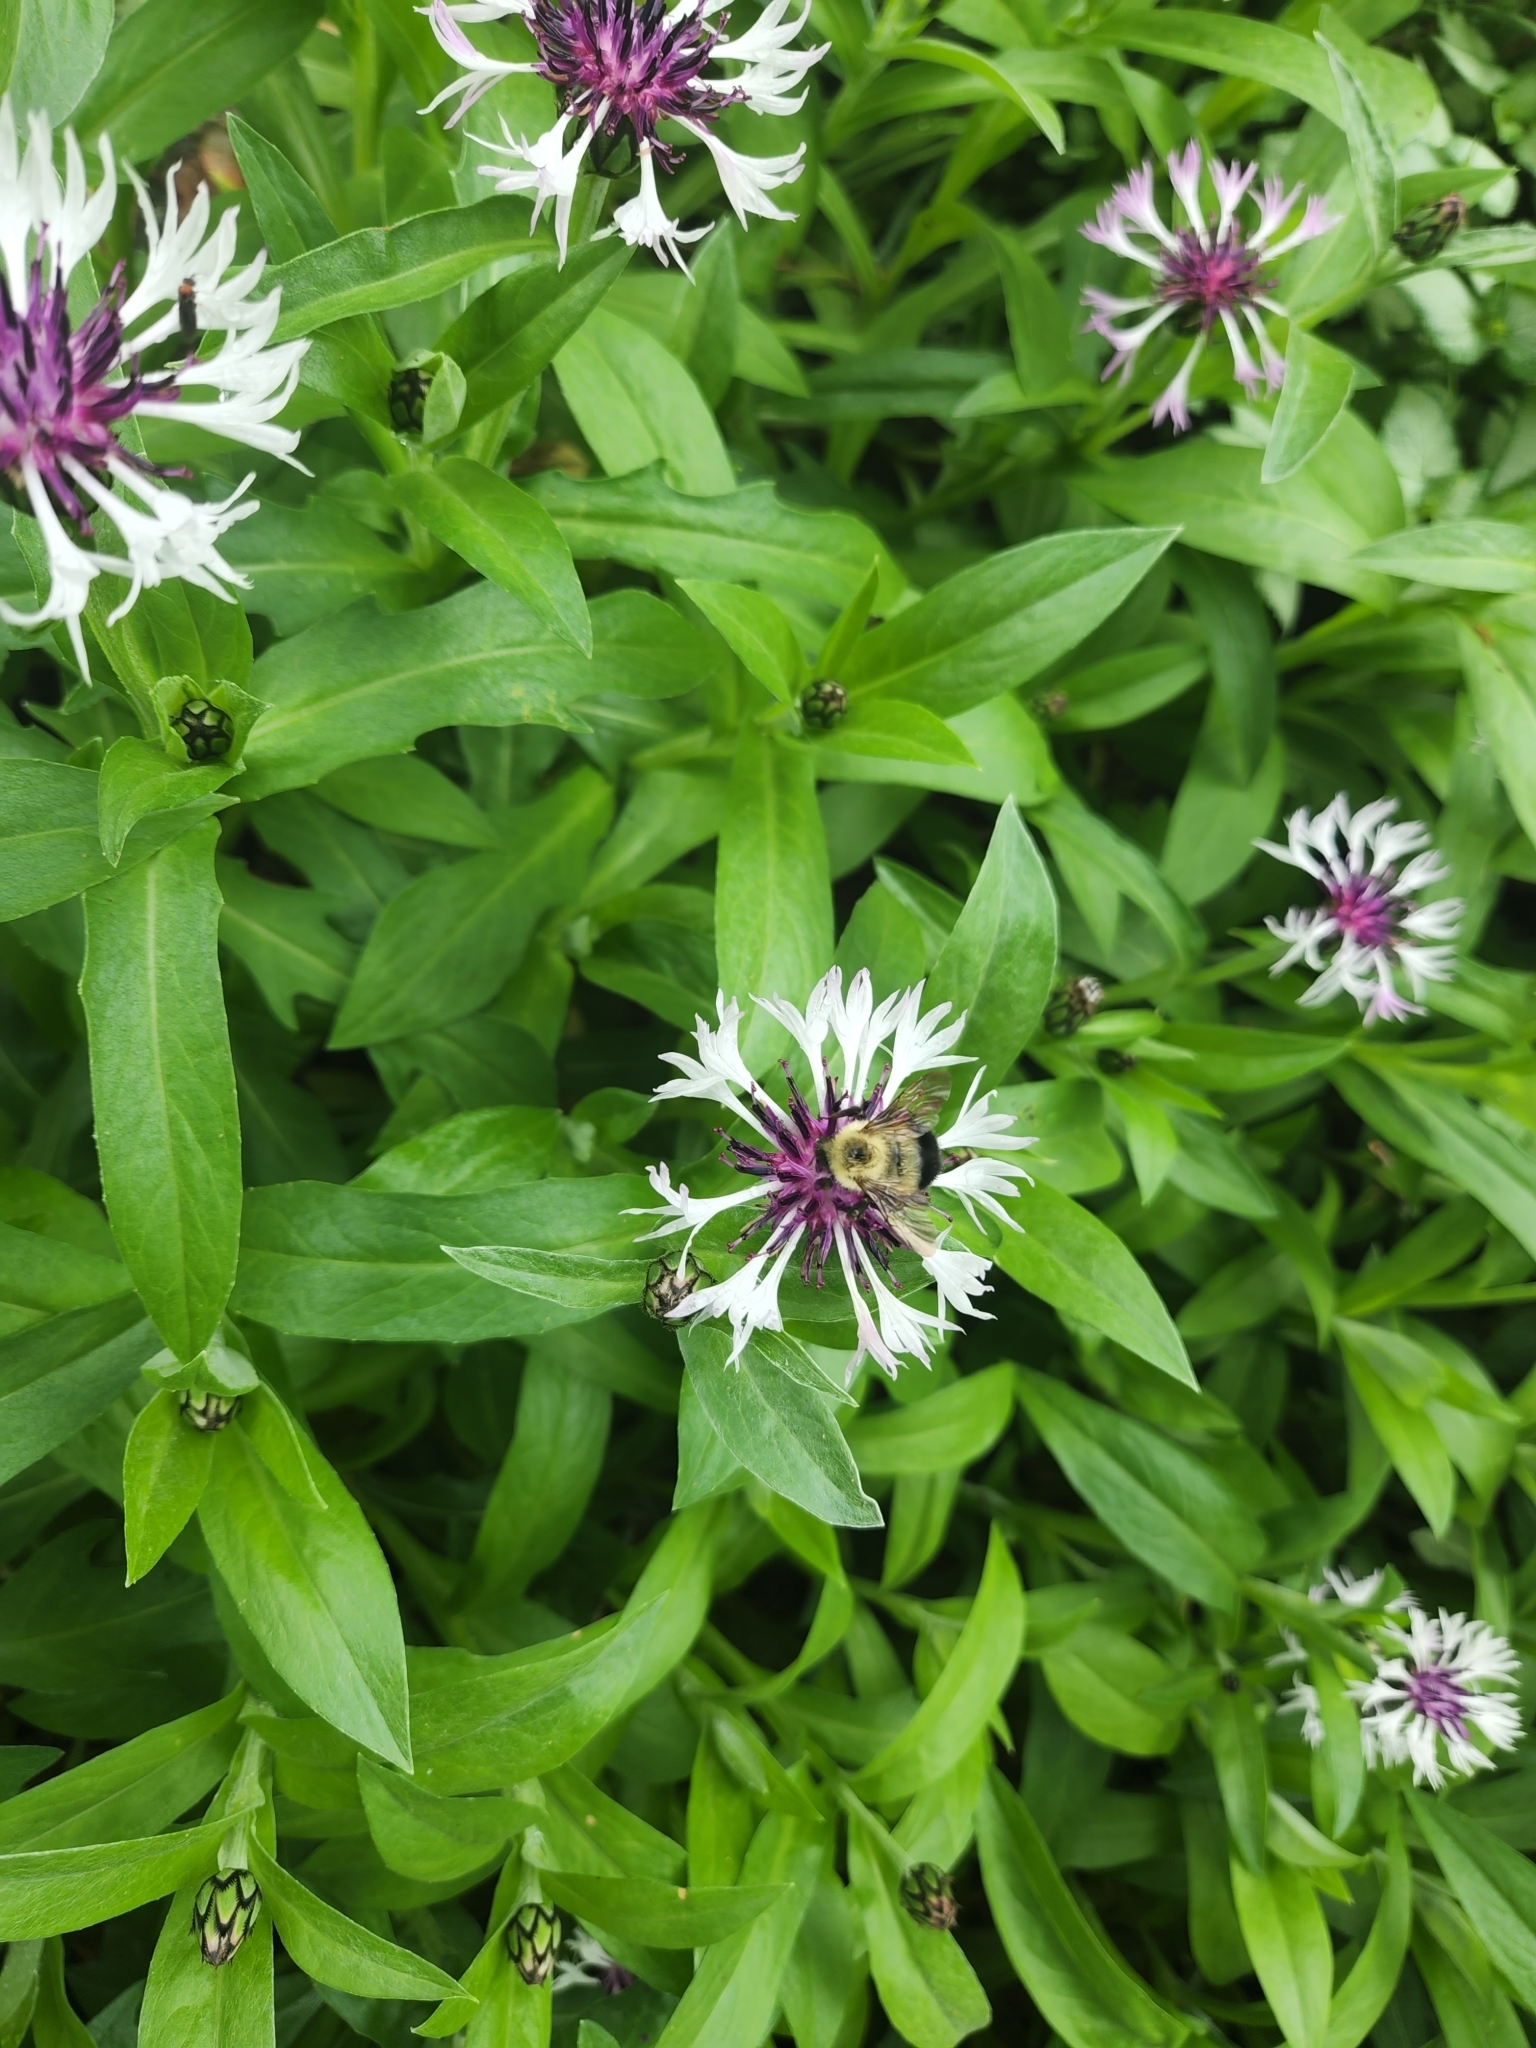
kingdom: Animalia
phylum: Arthropoda
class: Insecta
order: Hymenoptera
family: Apidae
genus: Pyrobombus
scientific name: Pyrobombus
